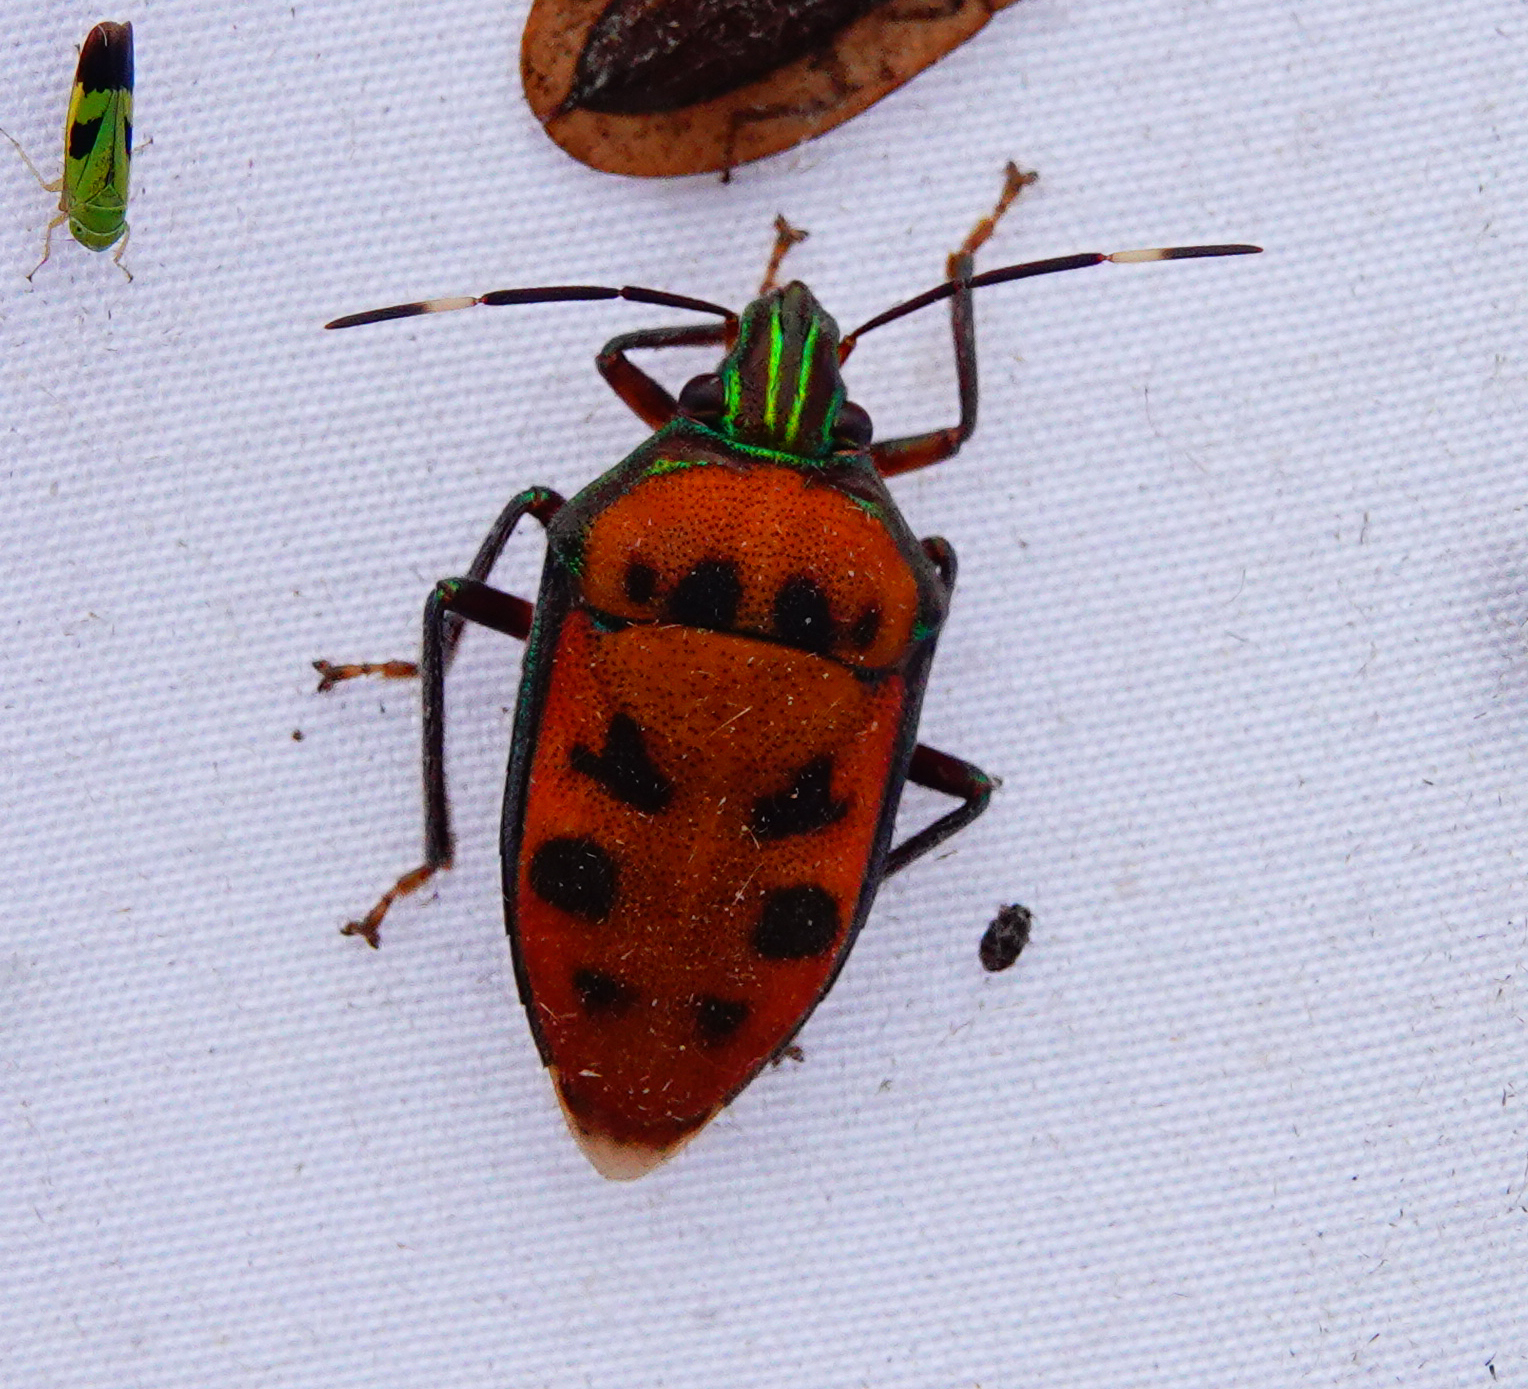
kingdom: Animalia
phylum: Arthropoda
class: Insecta
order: Hemiptera
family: Scutelleridae
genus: Tetrarthria
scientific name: Tetrarthria variegata
